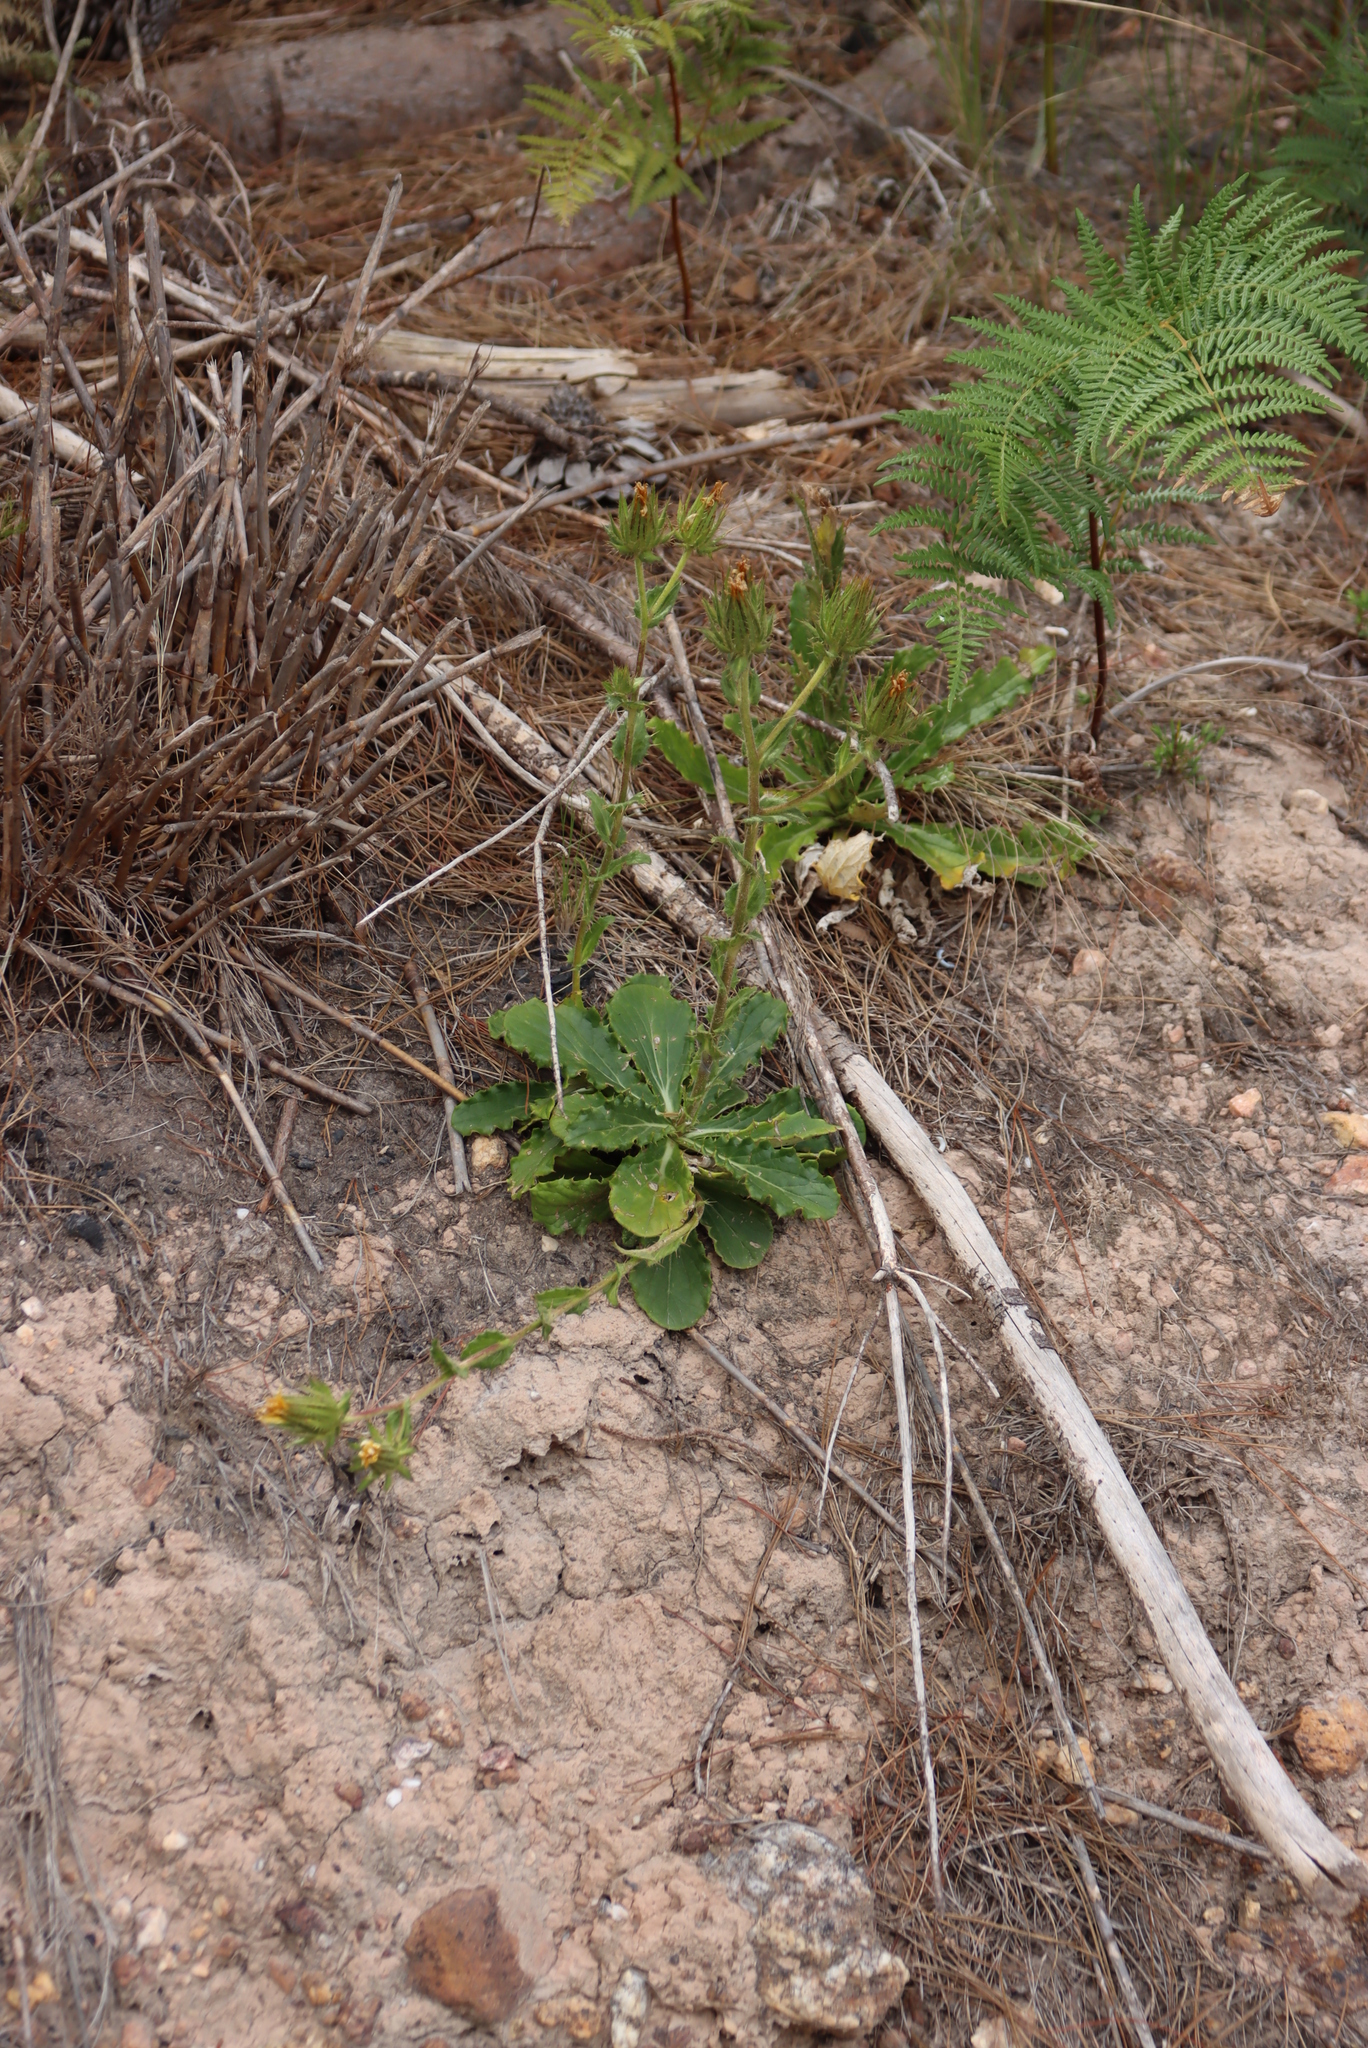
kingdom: Plantae
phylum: Tracheophyta
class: Magnoliopsida
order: Asterales
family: Asteraceae
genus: Berkheya
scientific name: Berkheya armata
